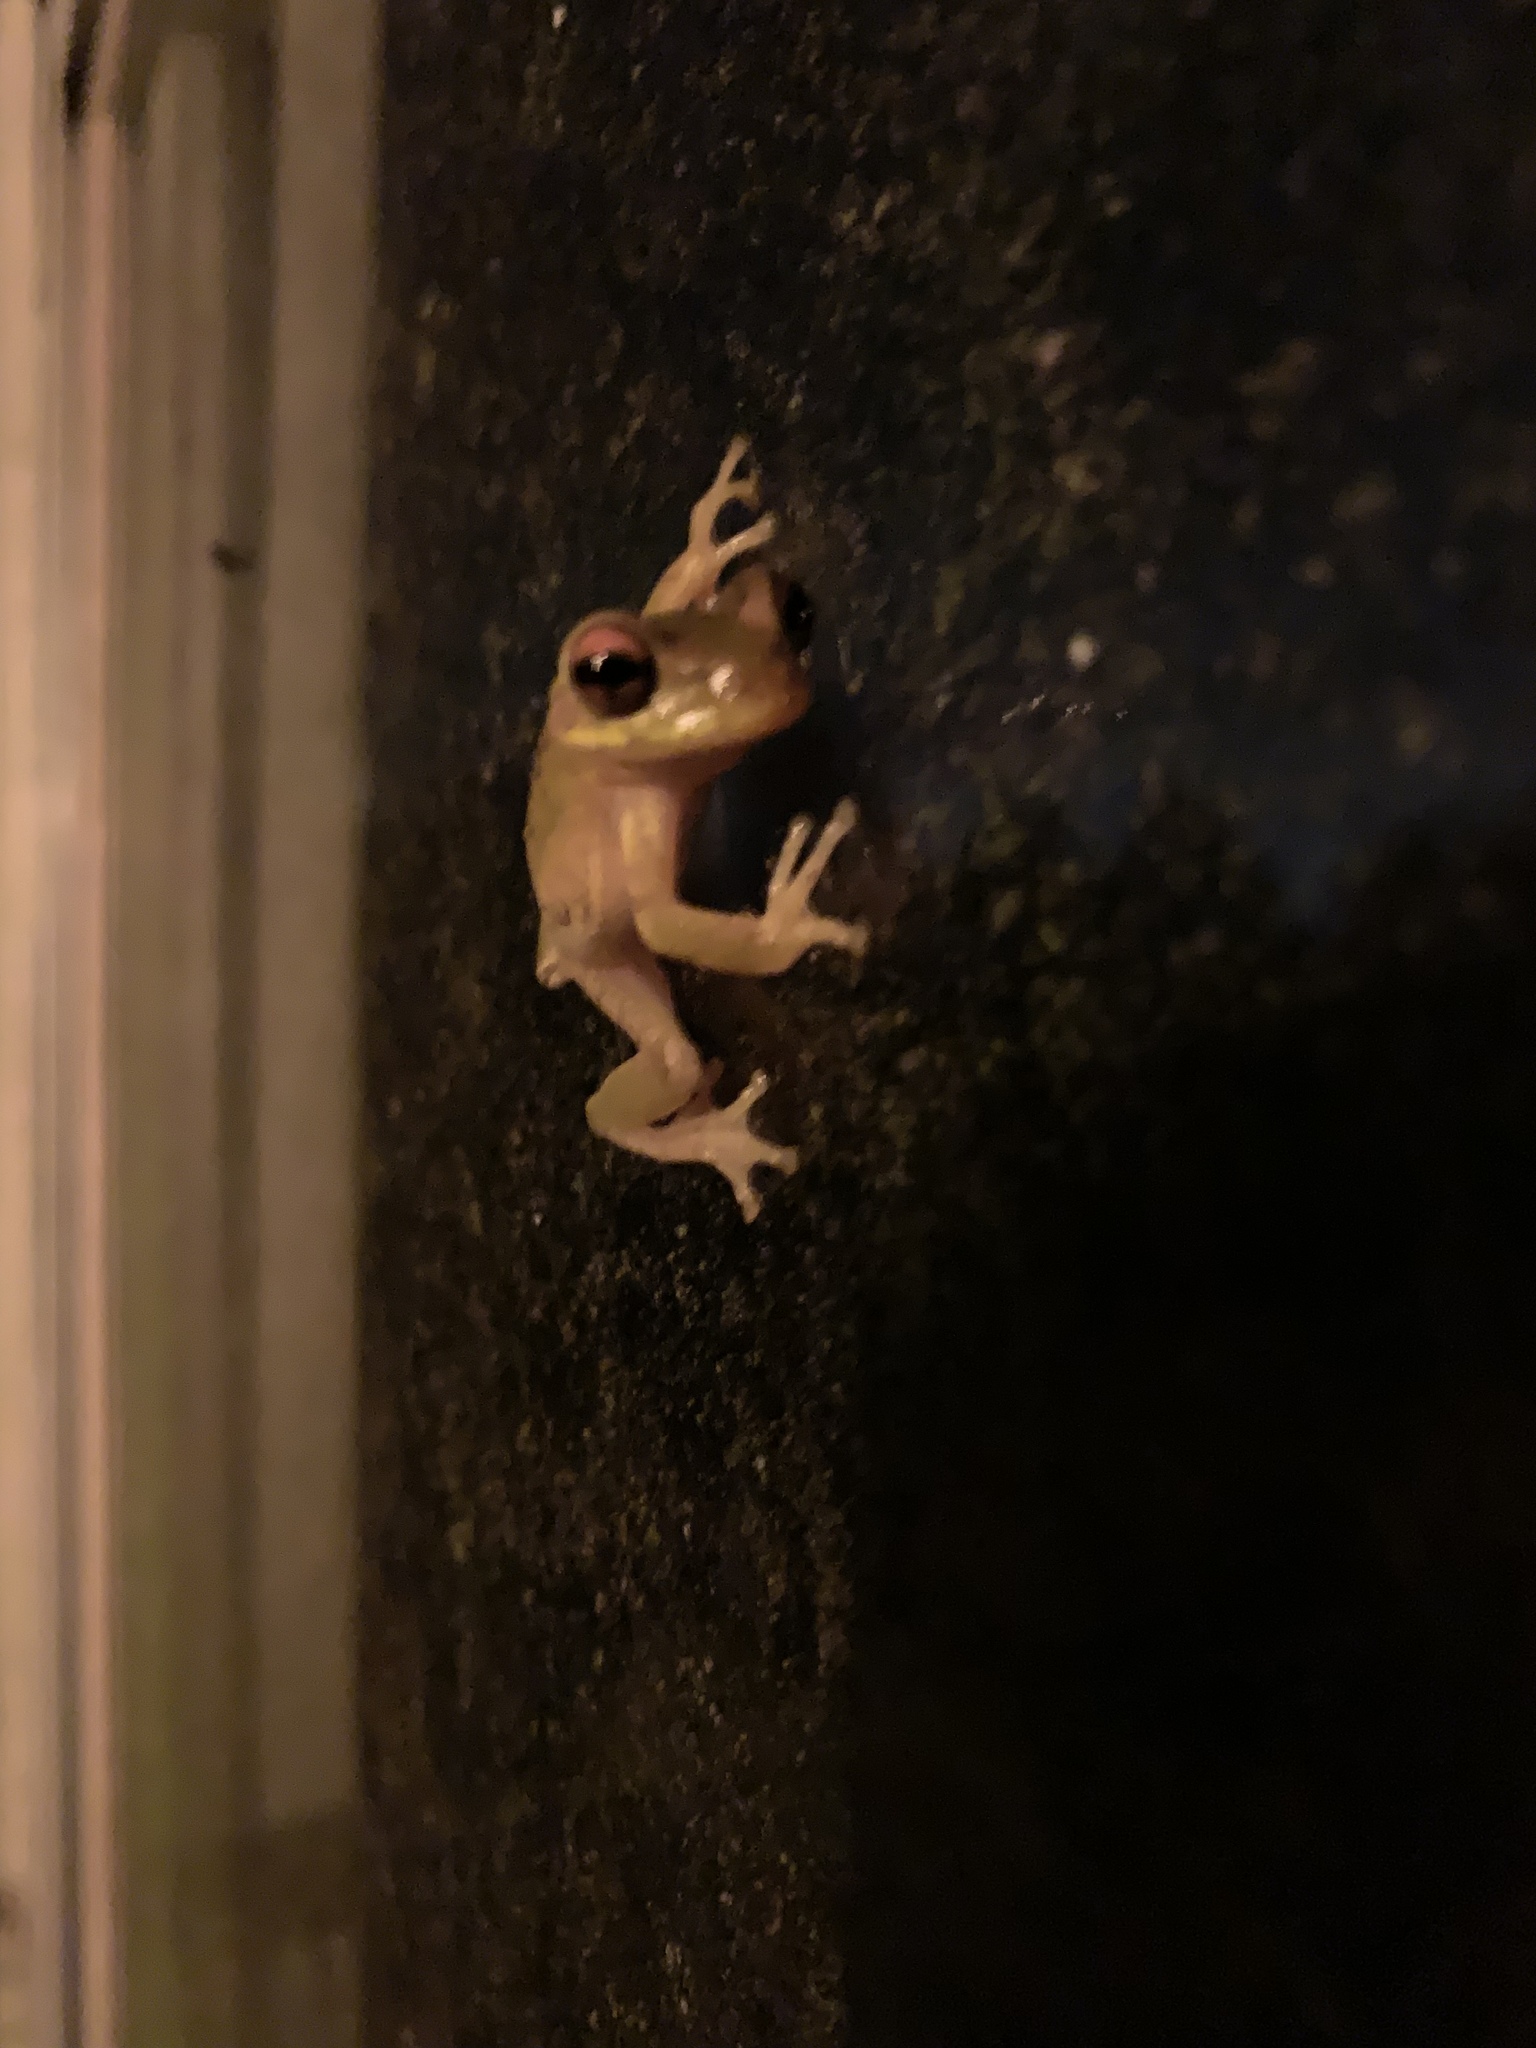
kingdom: Animalia
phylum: Chordata
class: Amphibia
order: Anura
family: Hylidae
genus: Osteopilus
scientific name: Osteopilus septentrionalis
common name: Cuban treefrog
